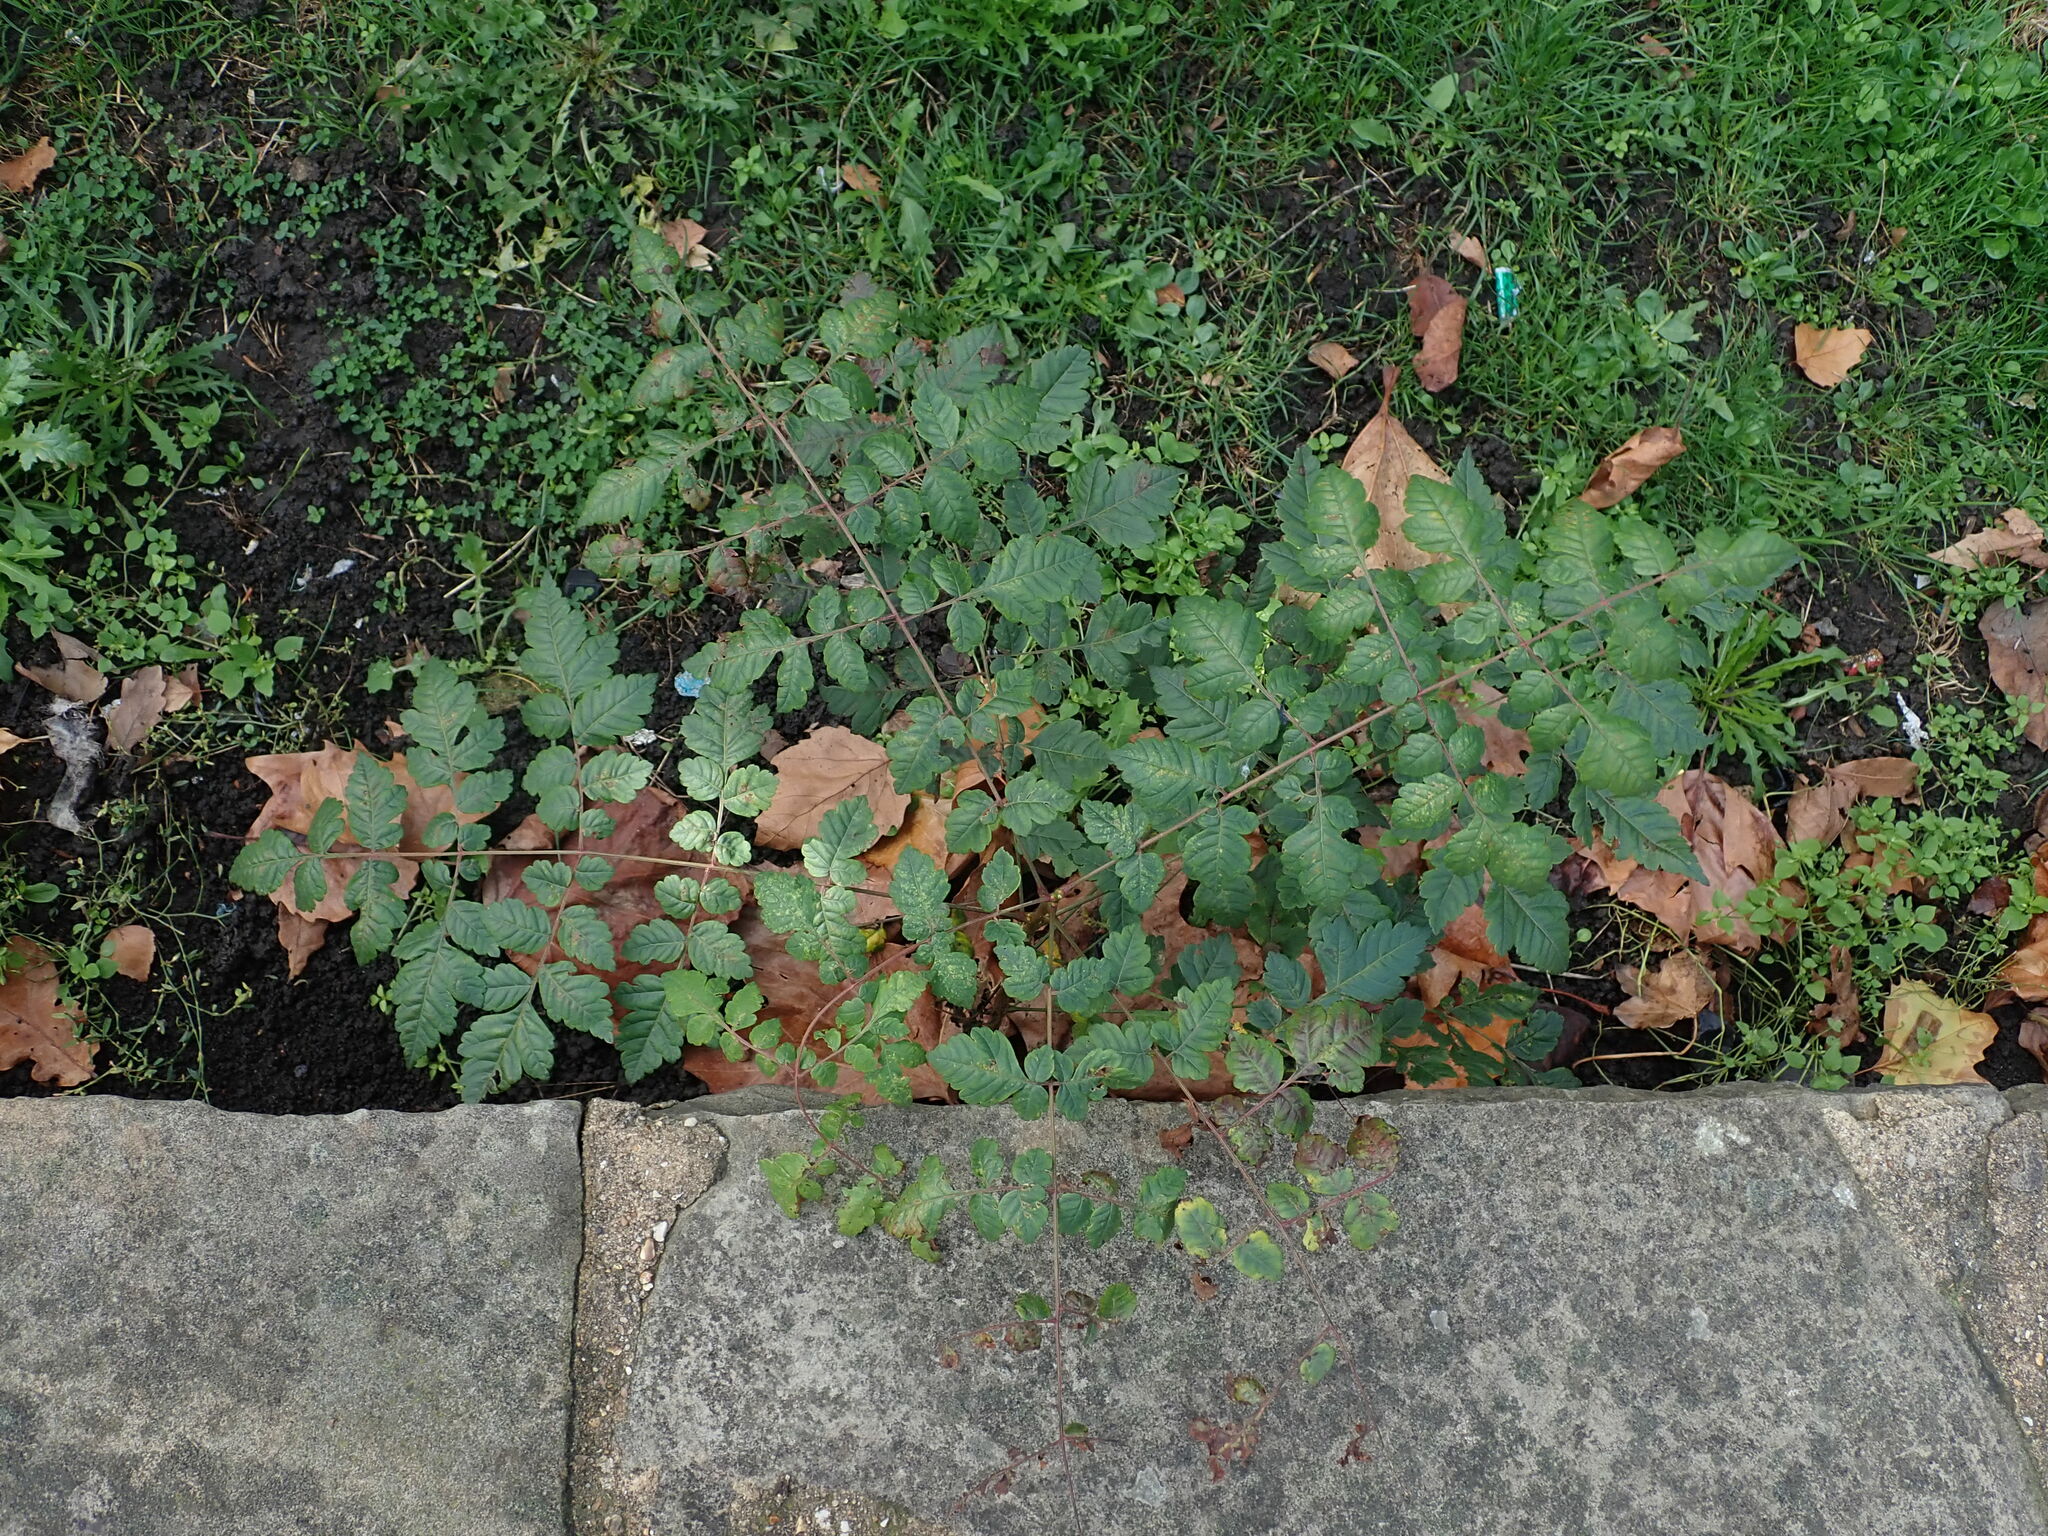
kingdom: Plantae
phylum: Tracheophyta
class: Magnoliopsida
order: Sapindales
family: Sapindaceae
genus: Koelreuteria
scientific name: Koelreuteria paniculata
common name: Pride-of-india
